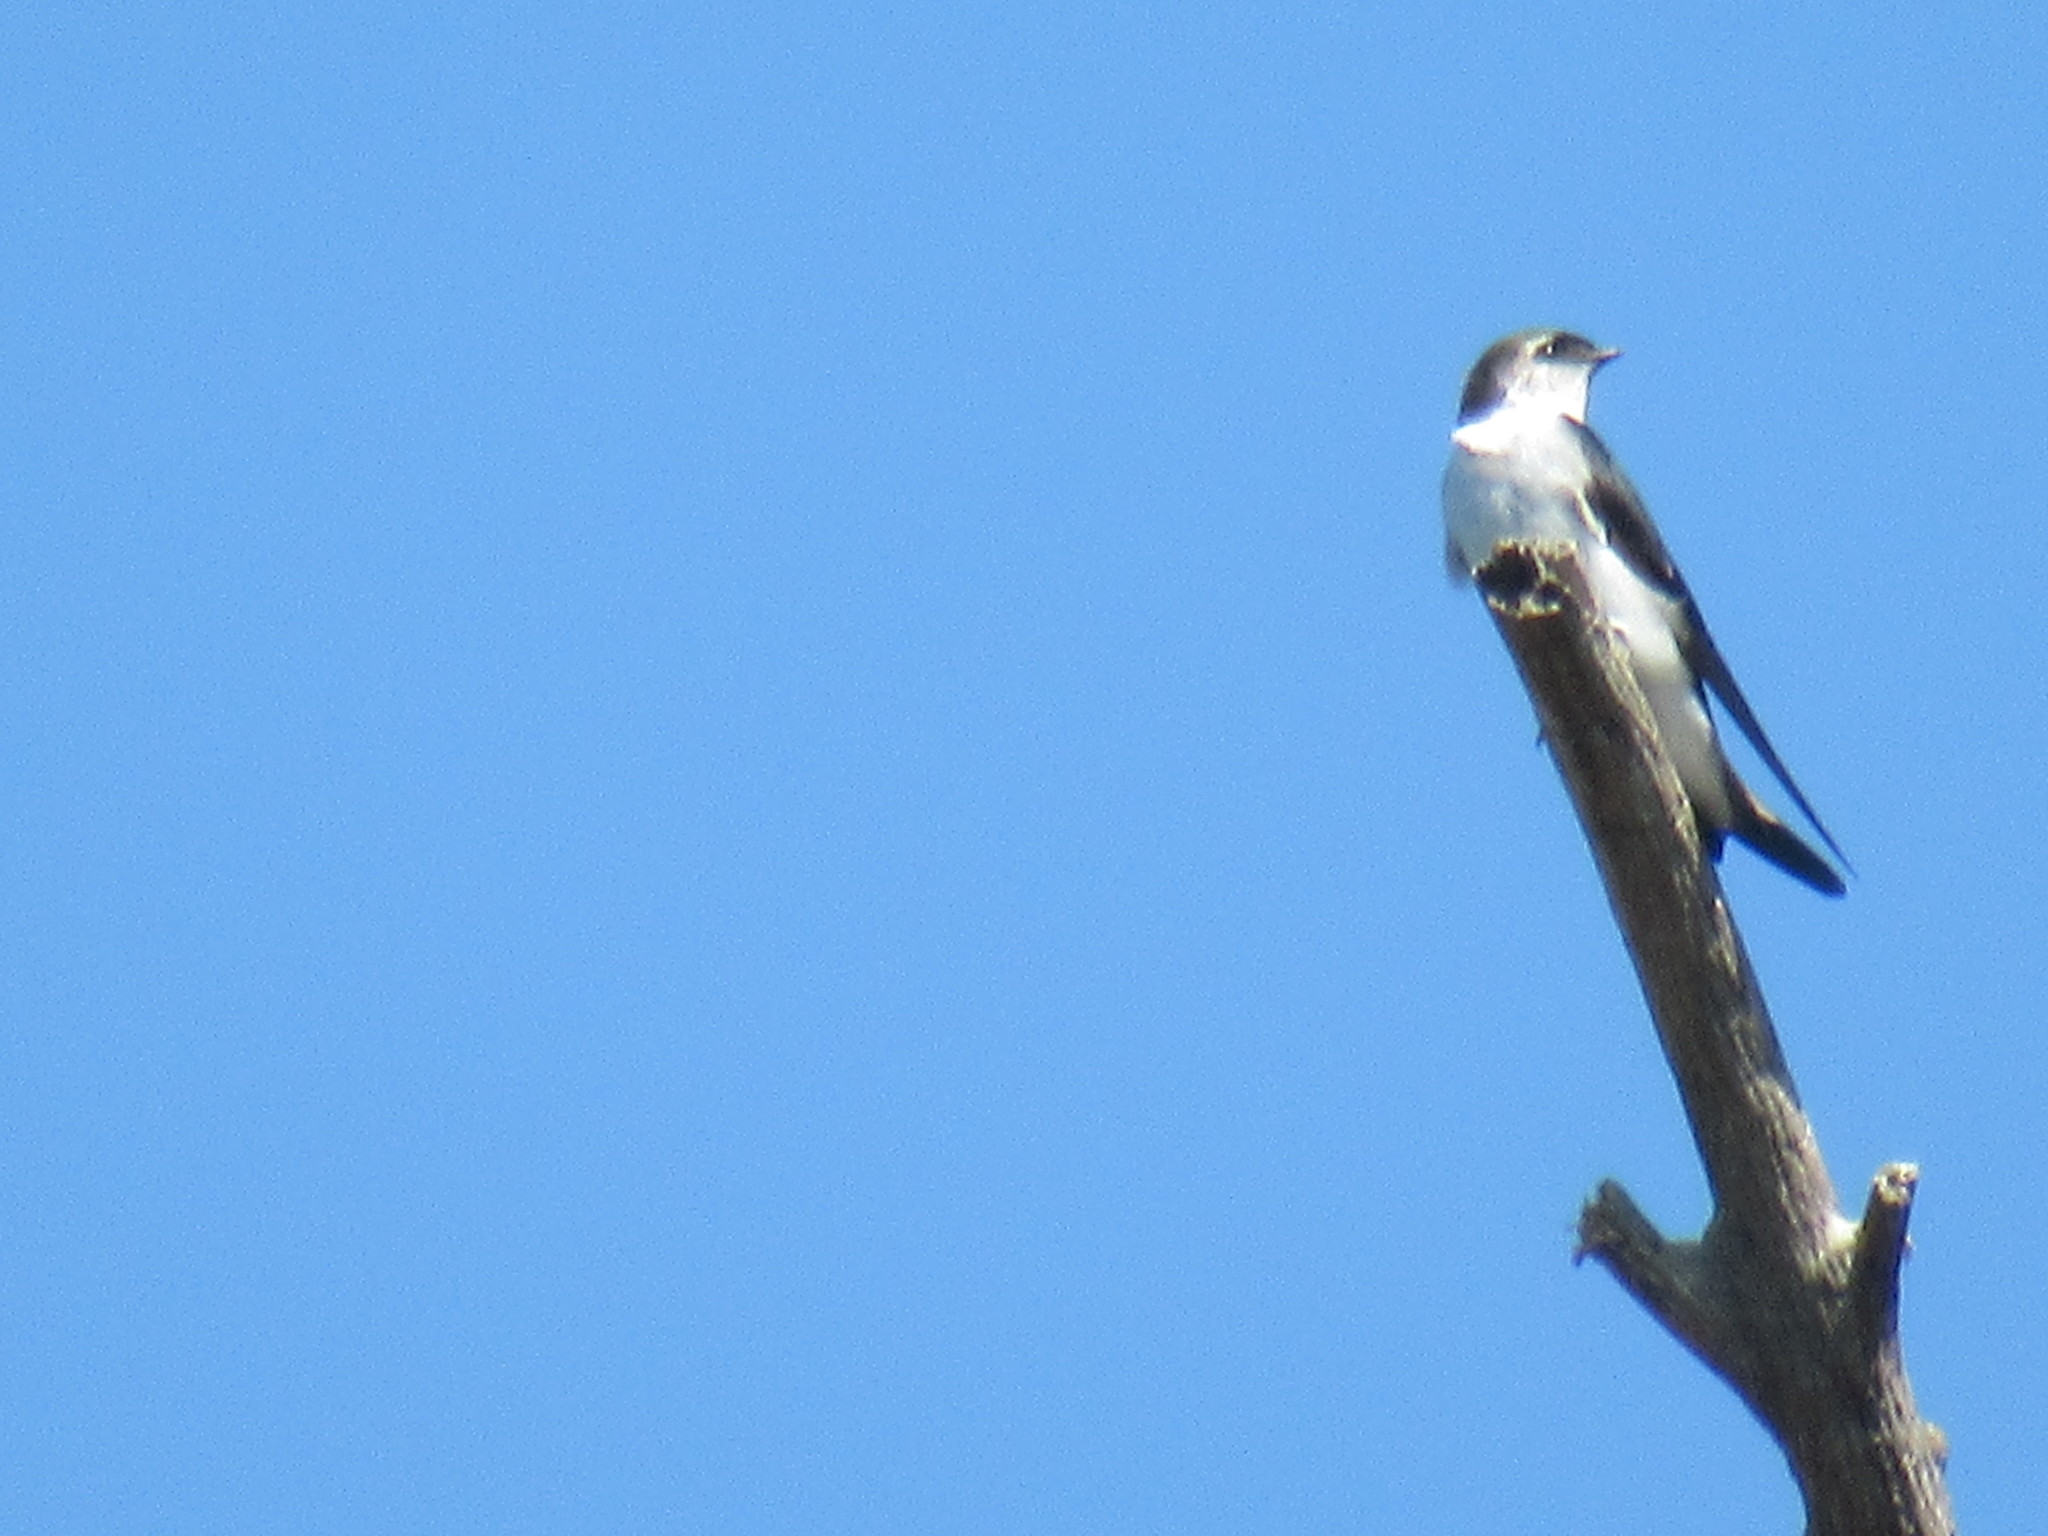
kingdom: Animalia
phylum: Chordata
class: Aves
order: Passeriformes
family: Hirundinidae
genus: Tachycineta
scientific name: Tachycineta thalassina
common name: Violet-green swallow
